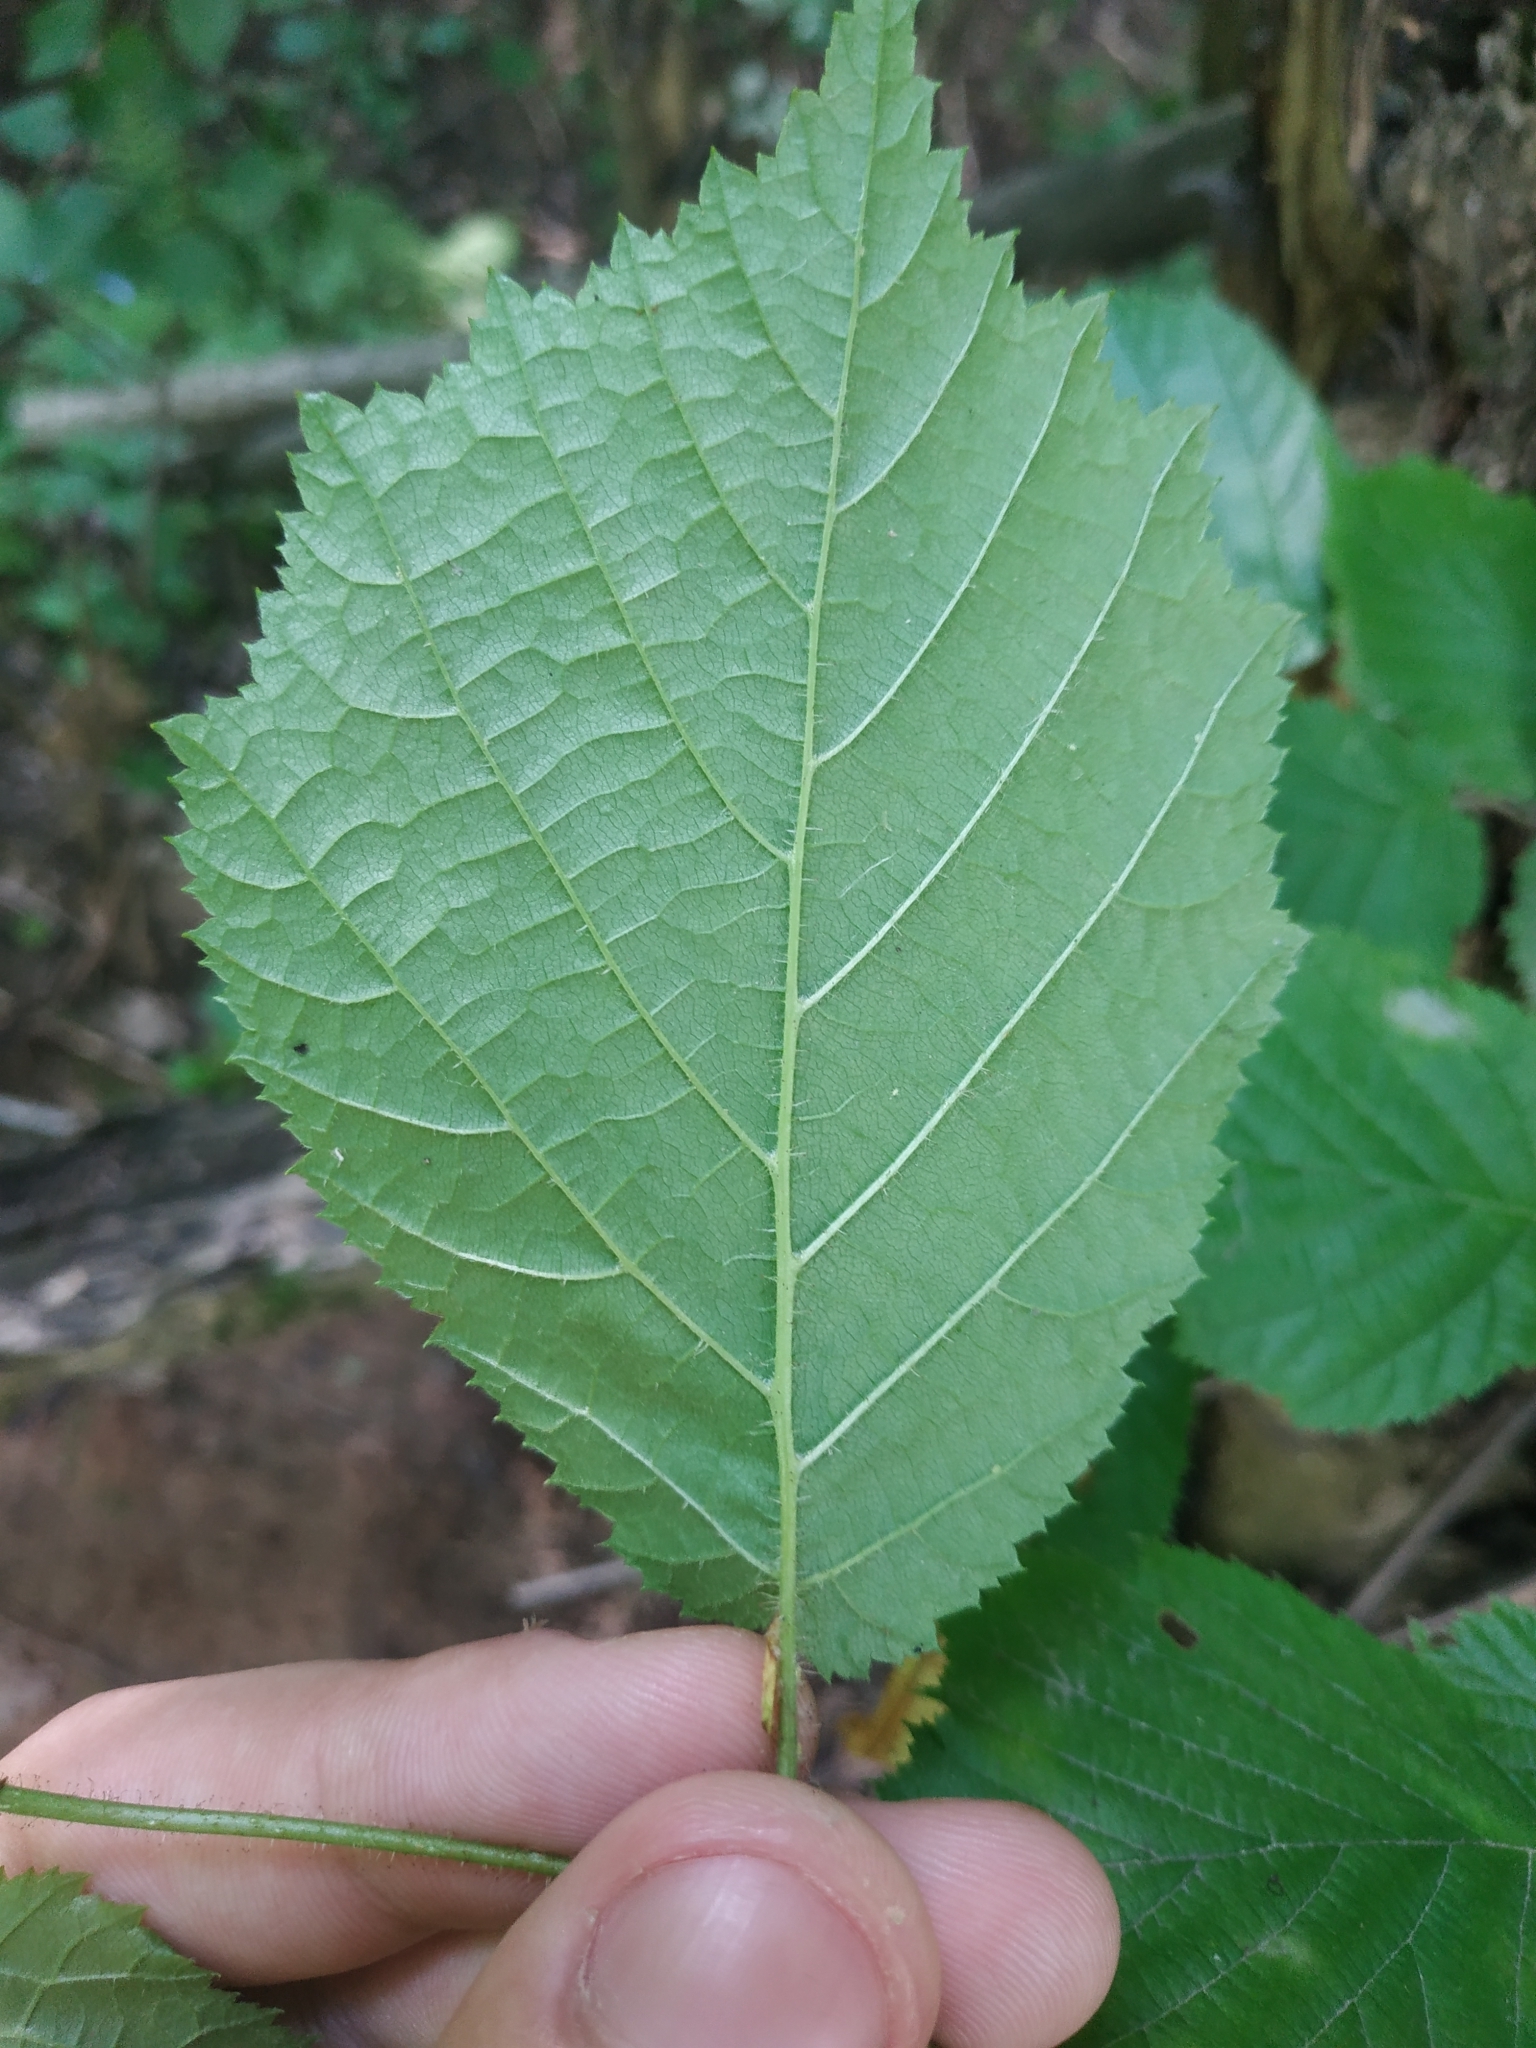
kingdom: Plantae
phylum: Tracheophyta
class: Magnoliopsida
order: Fagales
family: Betulaceae
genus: Corylus
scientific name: Corylus avellana
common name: European hazel
